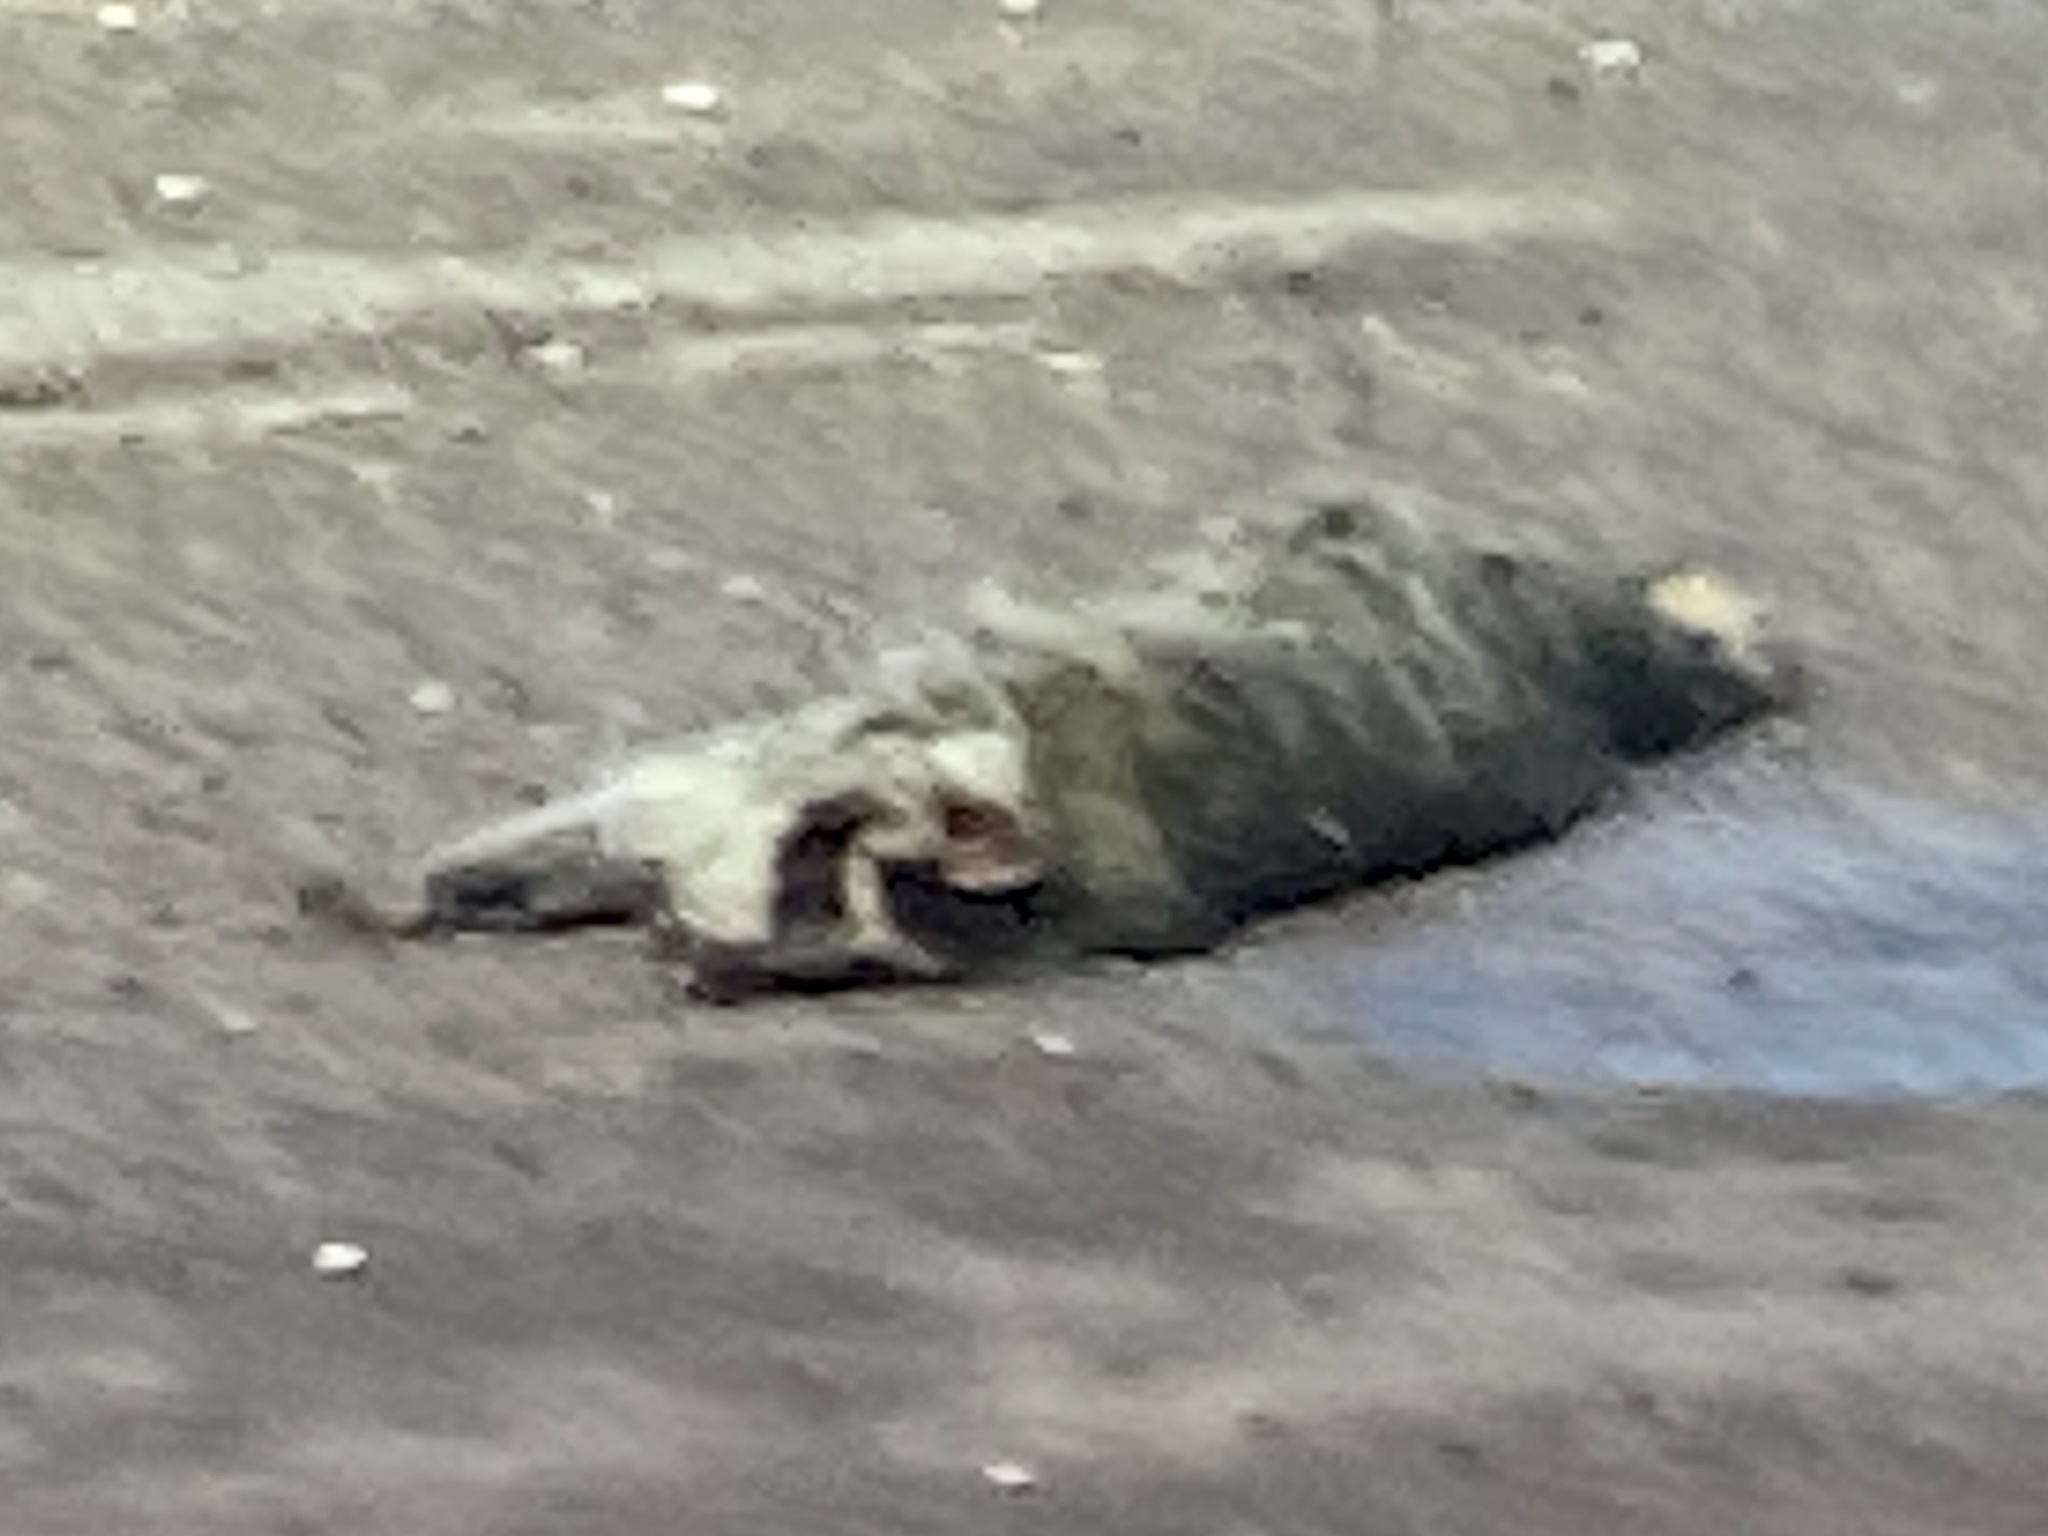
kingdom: Animalia
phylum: Chordata
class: Mammalia
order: Carnivora
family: Procyonidae
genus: Procyon
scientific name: Procyon lotor
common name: Raccoon
